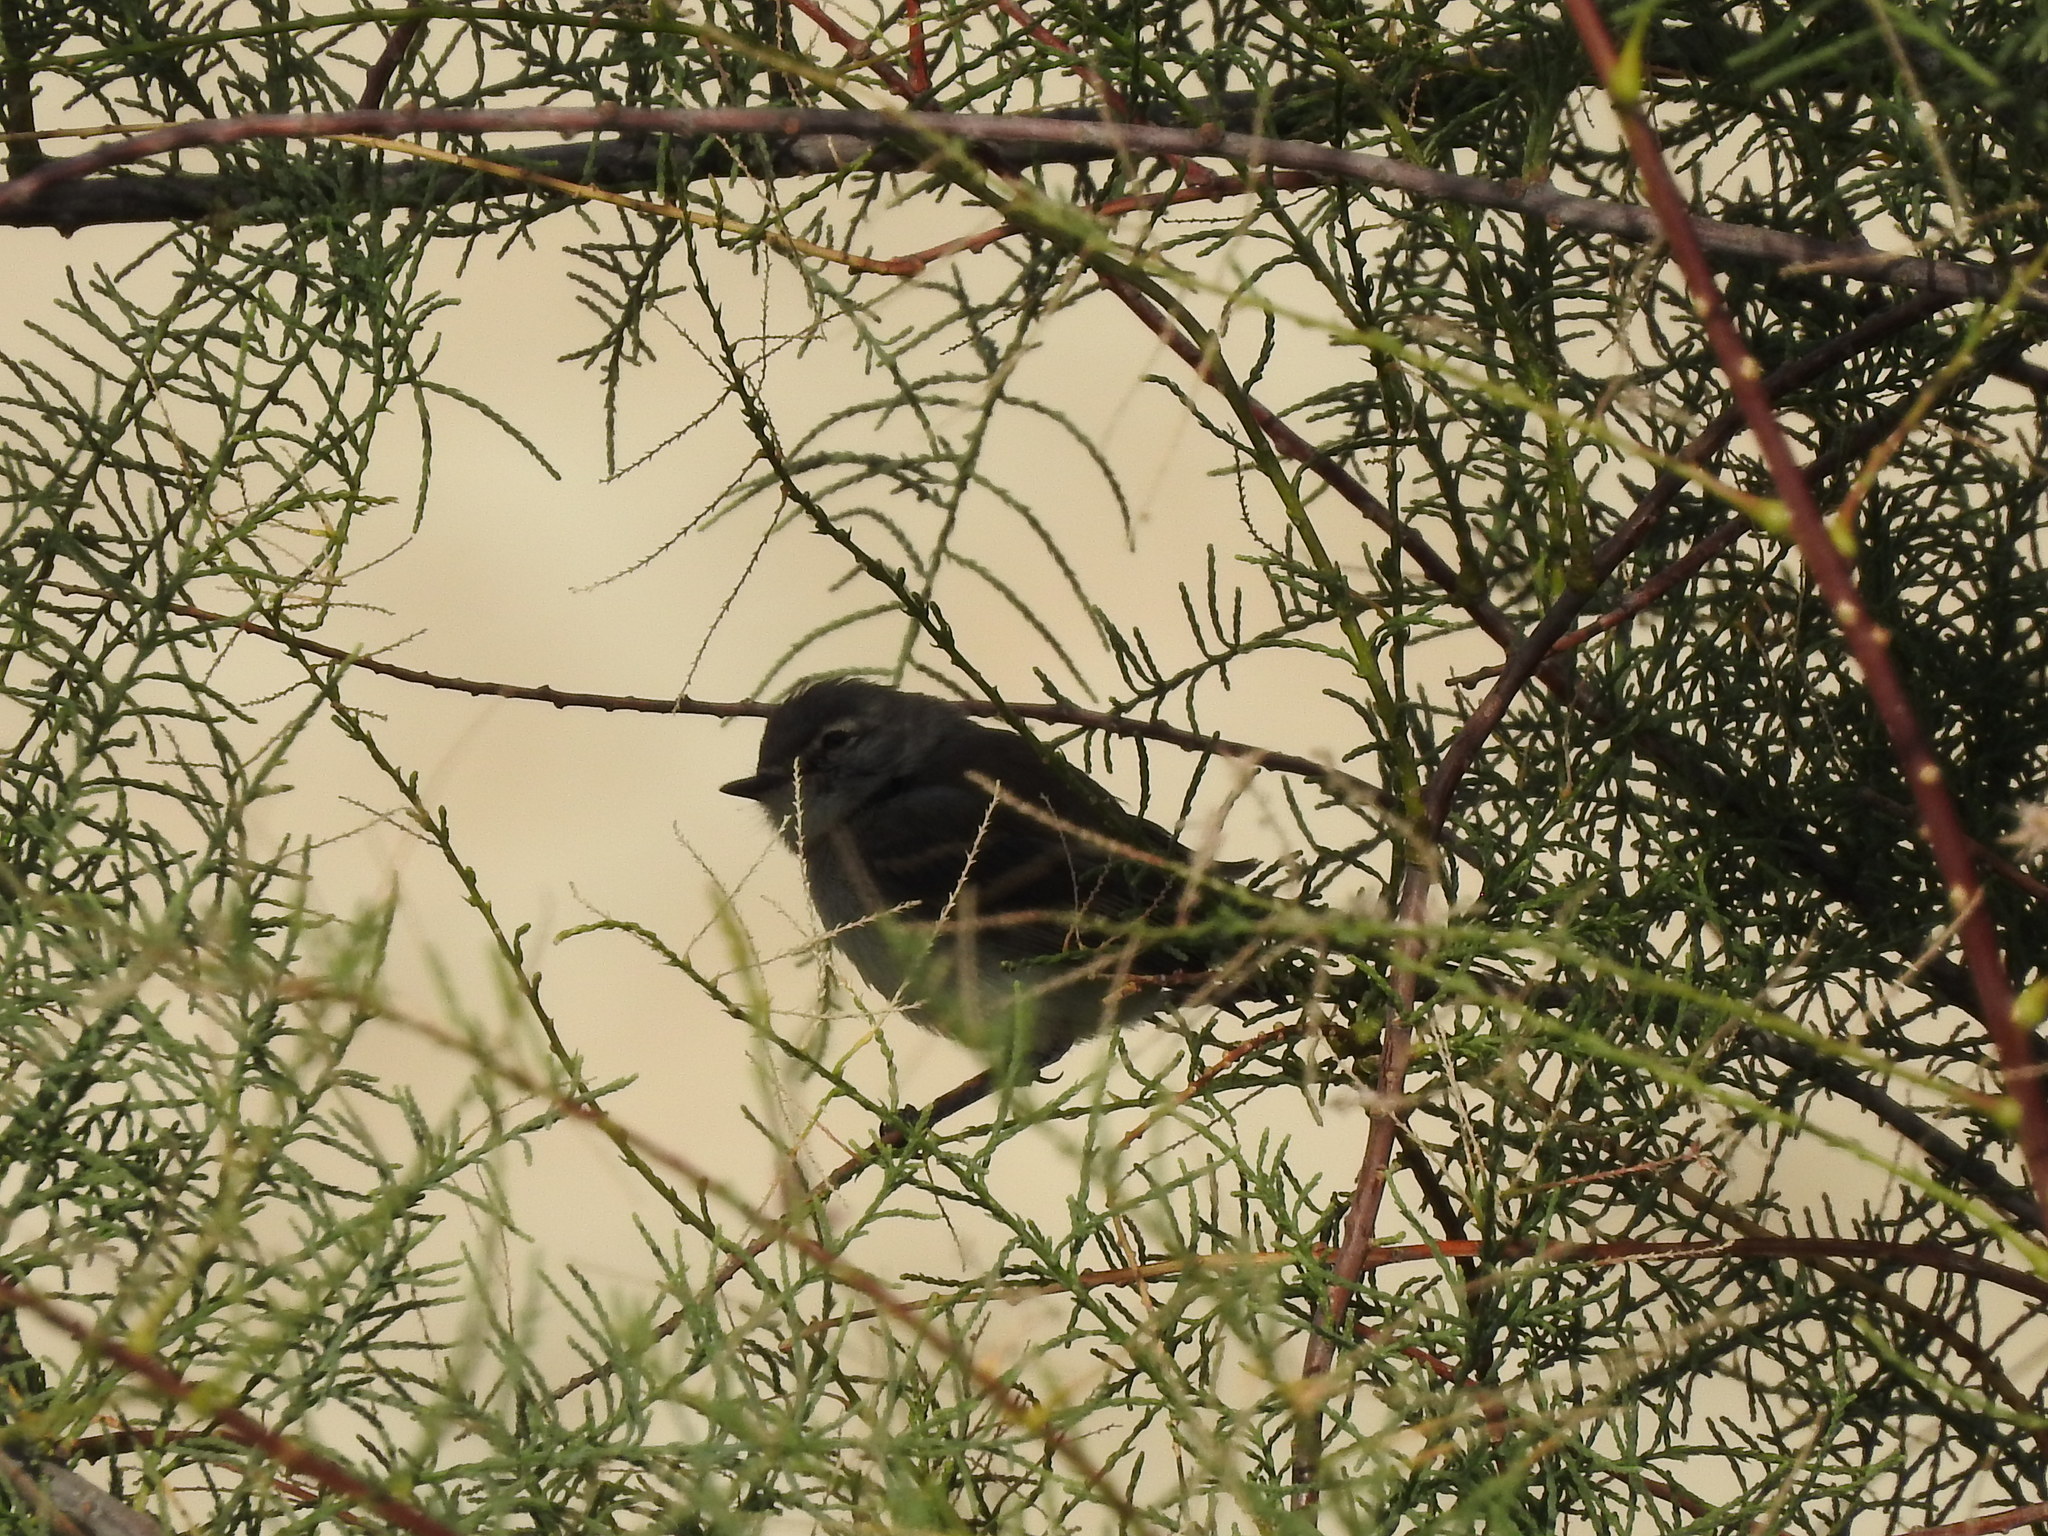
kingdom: Animalia
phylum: Chordata
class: Aves
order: Passeriformes
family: Tyrannidae
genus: Serpophaga
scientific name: Serpophaga griseicapilla
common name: Straneck's tyrannulet
